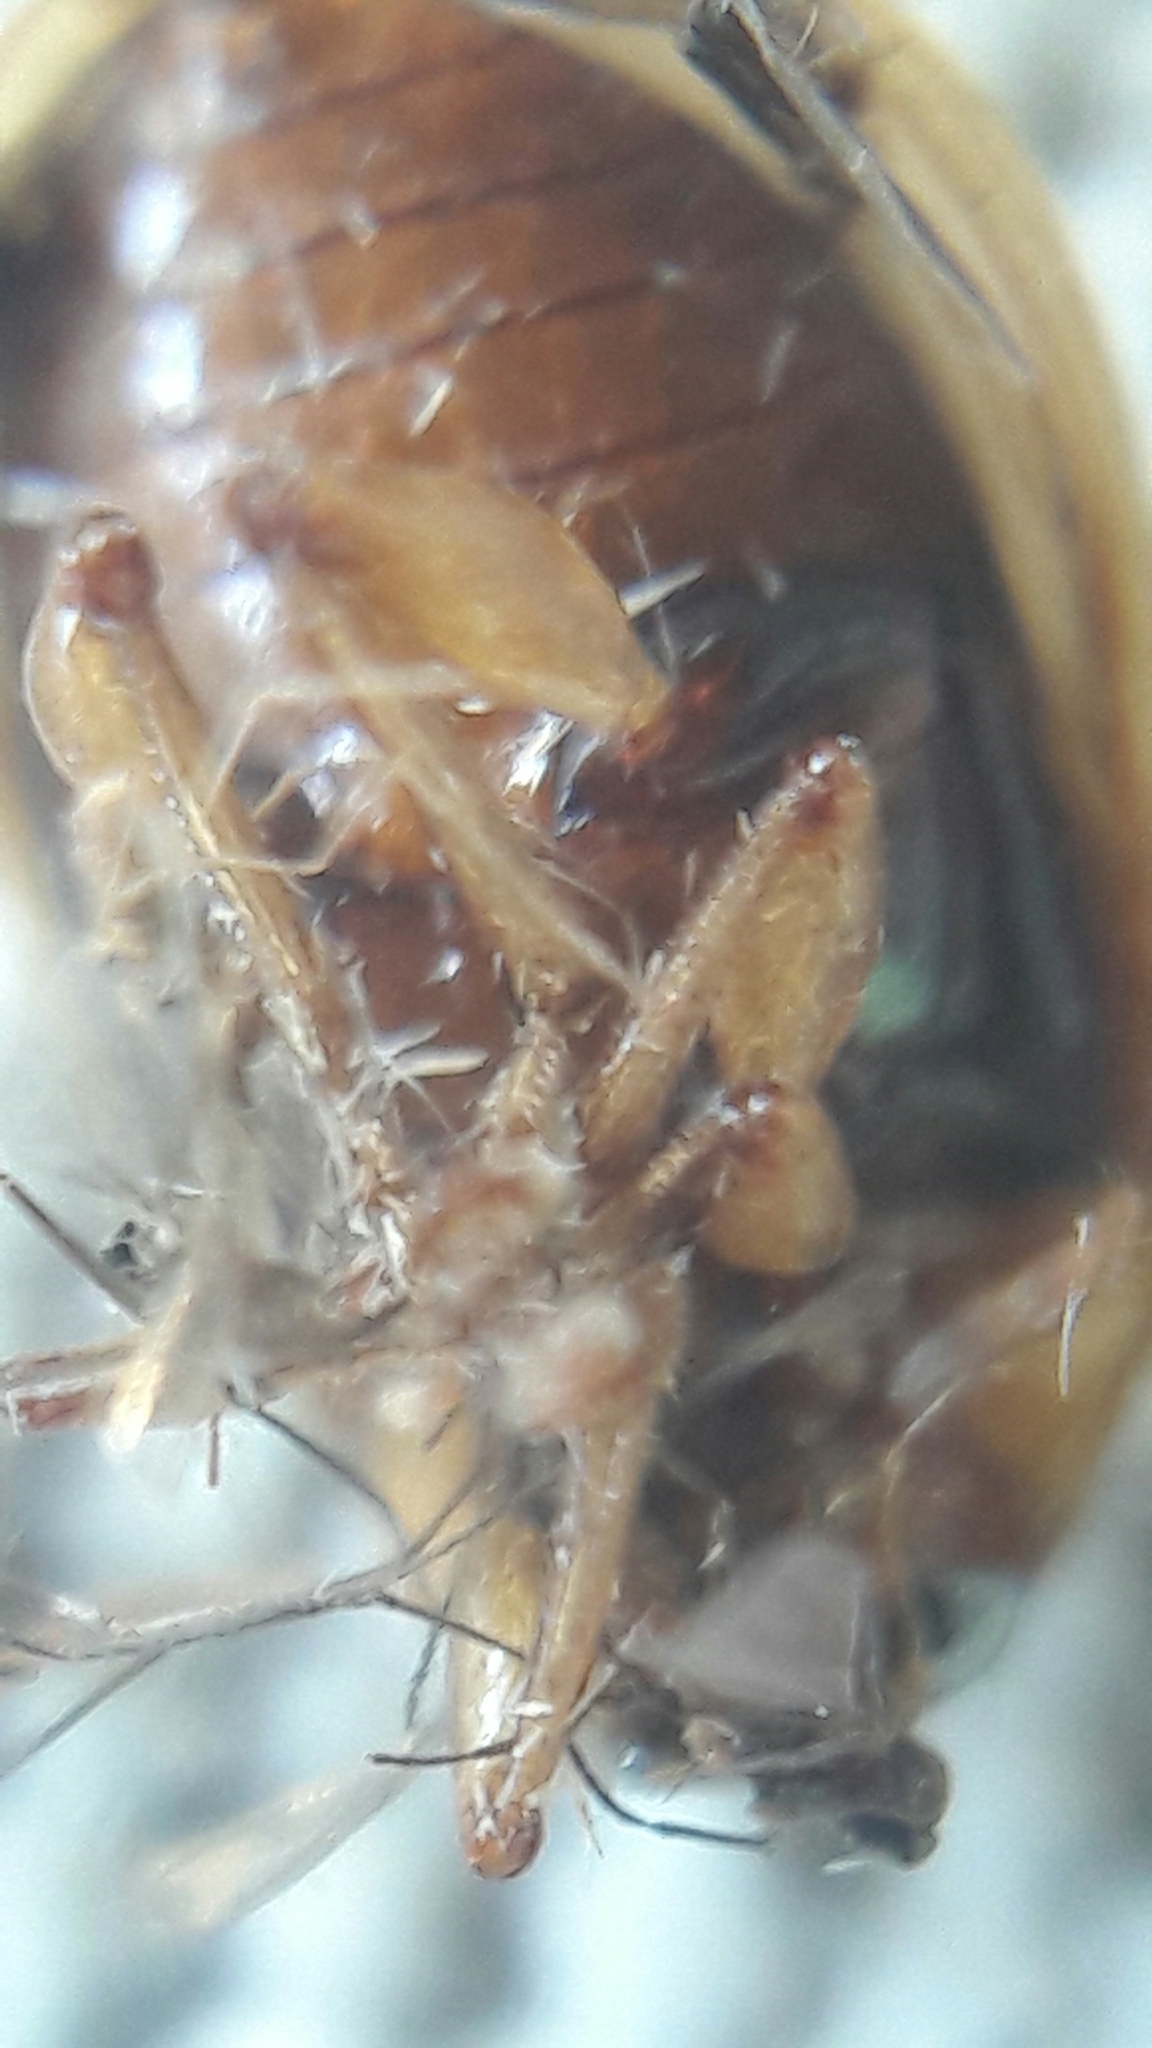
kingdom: Animalia
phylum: Arthropoda
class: Insecta
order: Coleoptera
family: Chrysomelidae
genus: Anisodera
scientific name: Anisodera ferruginea
